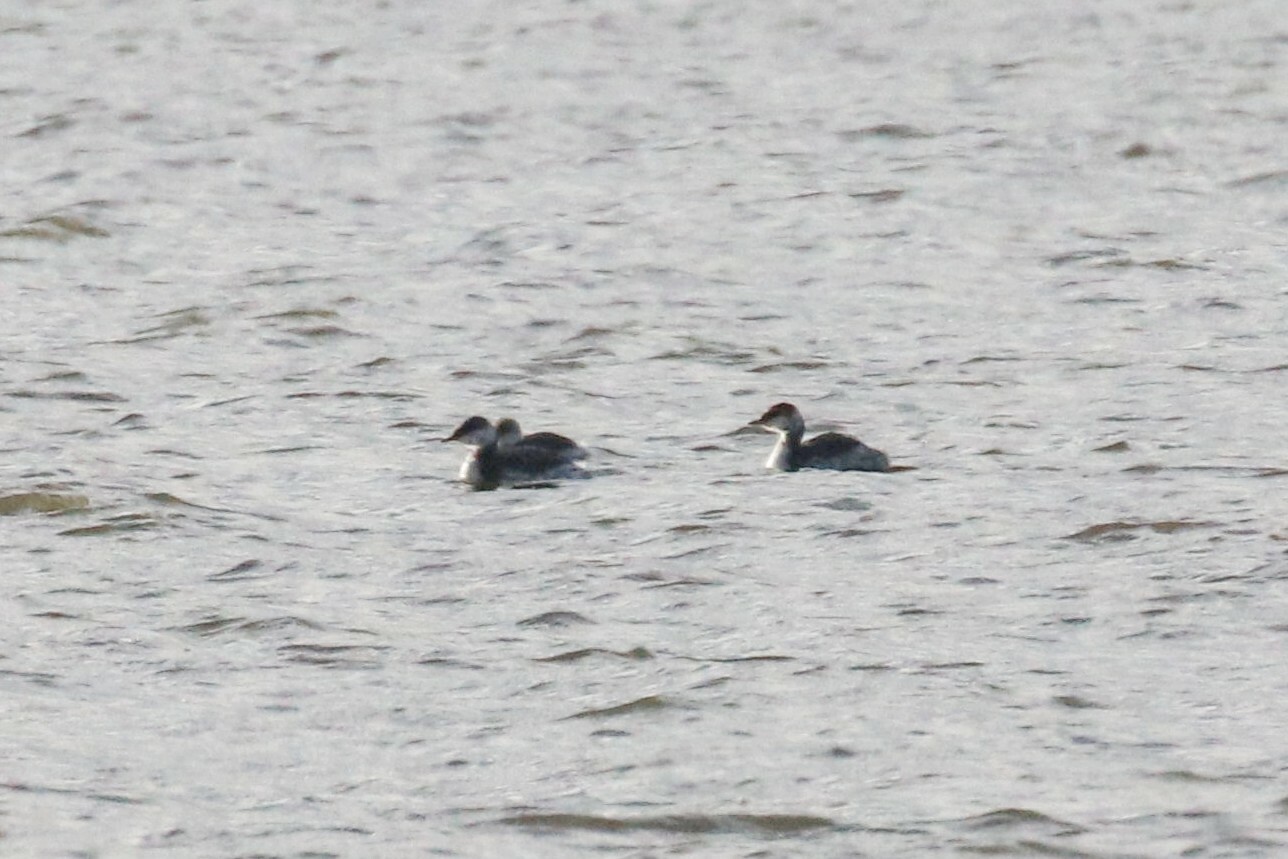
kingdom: Animalia
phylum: Chordata
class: Aves
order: Podicipediformes
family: Podicipedidae
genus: Podiceps
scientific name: Podiceps auritus
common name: Horned grebe
